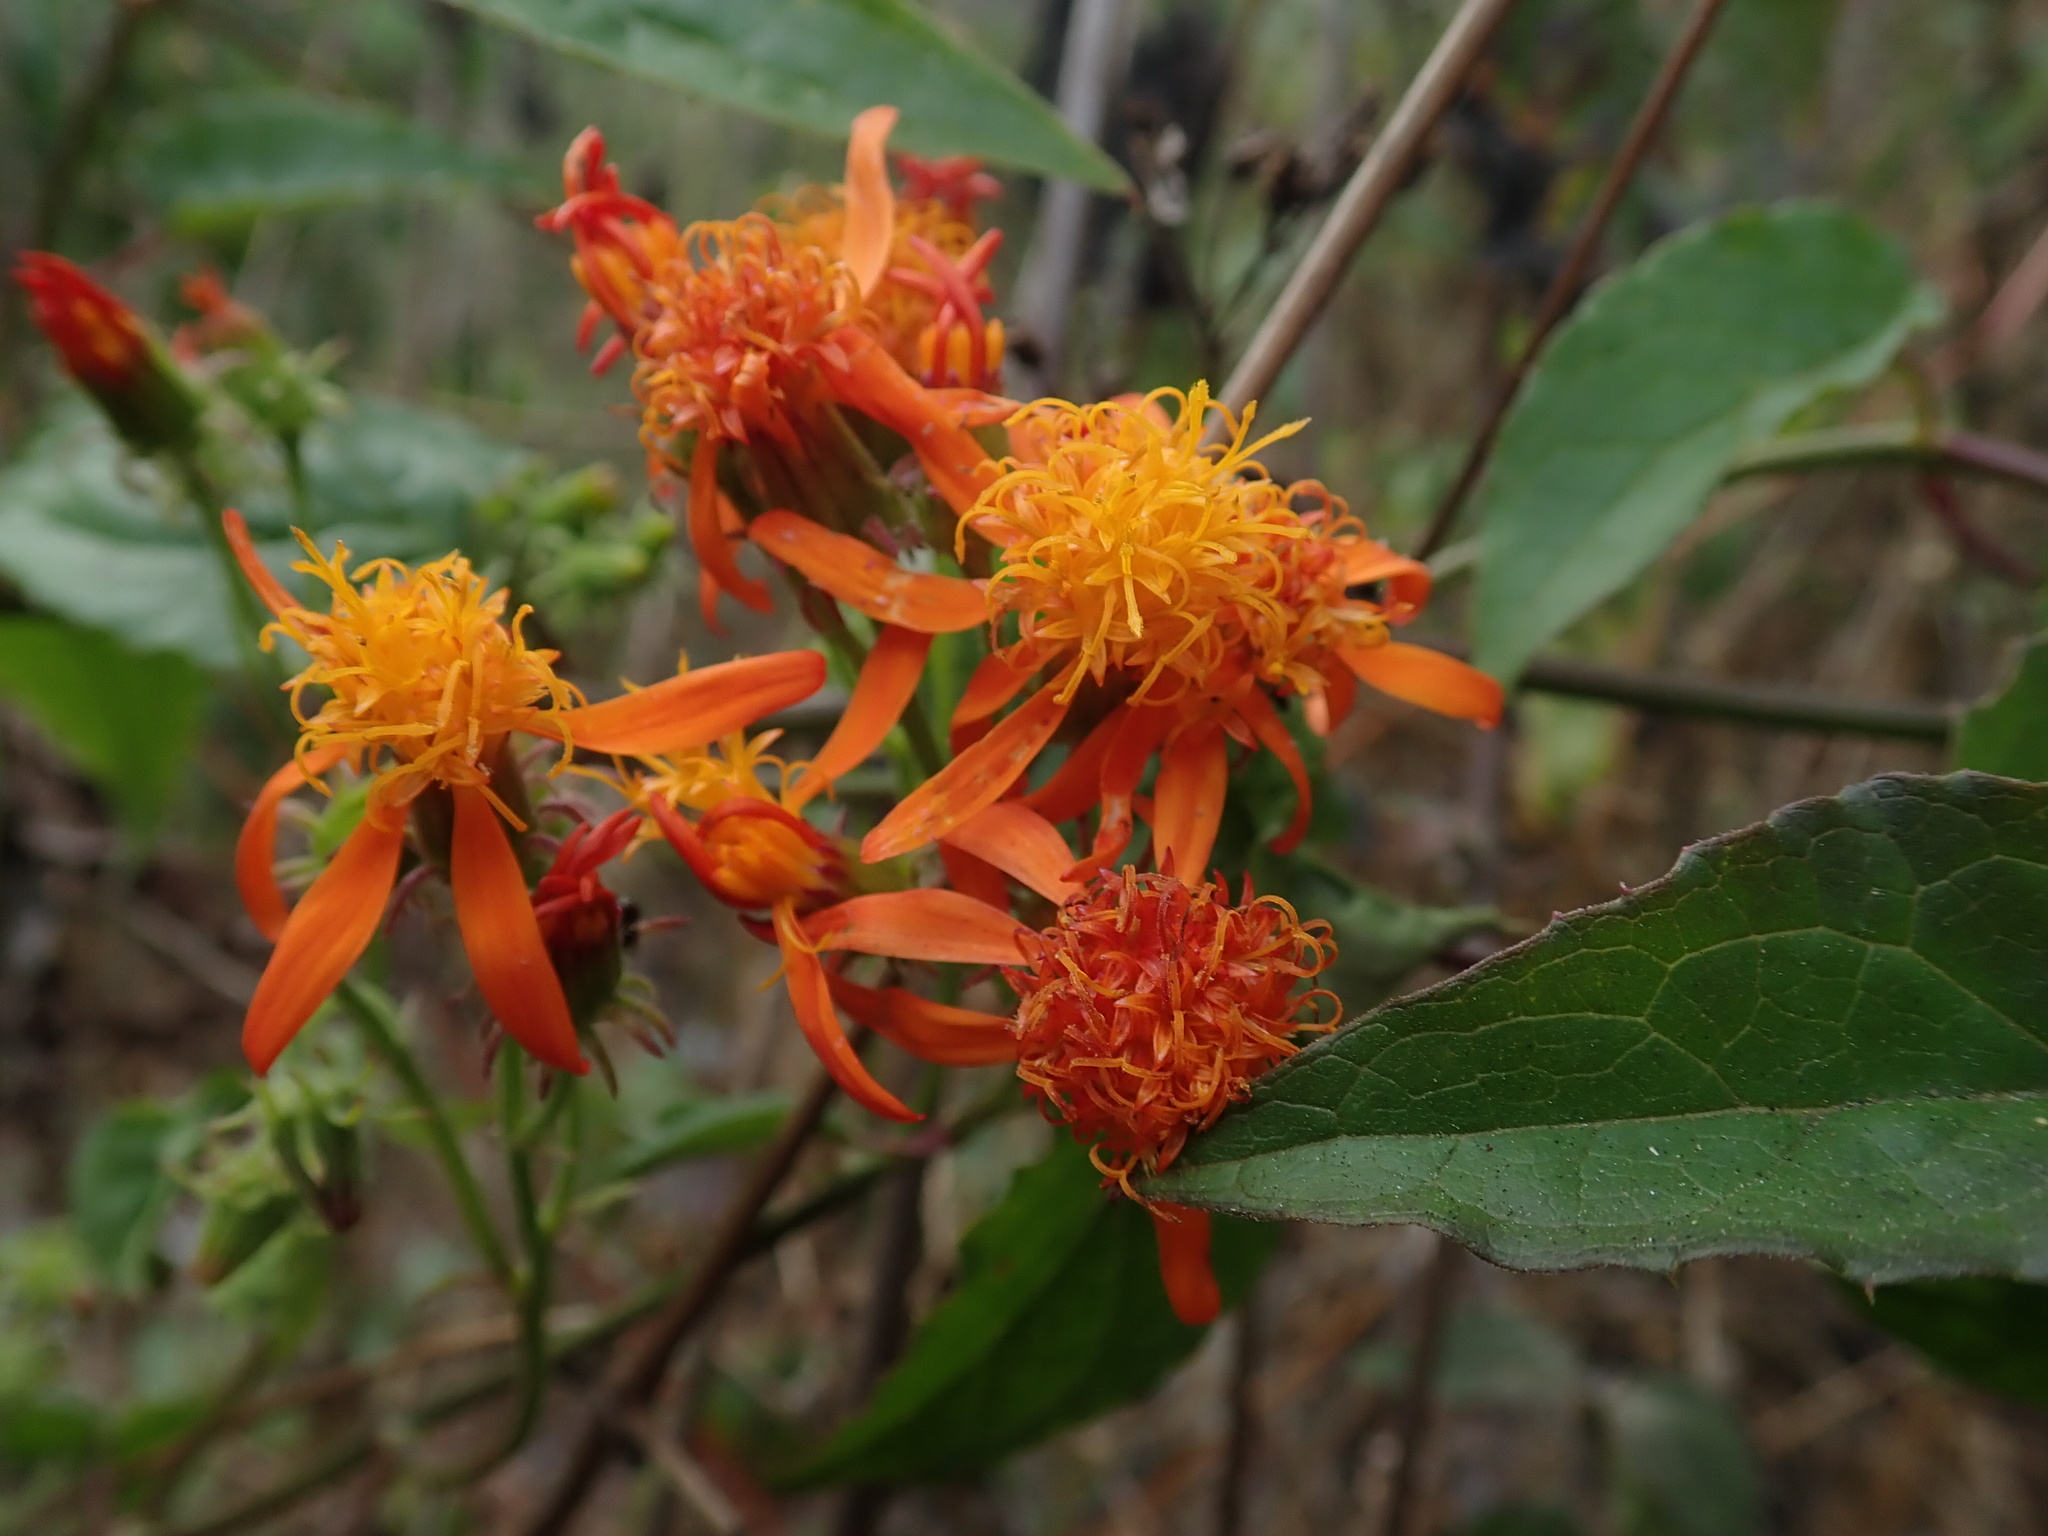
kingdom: Plantae
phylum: Tracheophyta
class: Magnoliopsida
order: Asterales
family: Asteraceae
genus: Pseudogynoxys
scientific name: Pseudogynoxys haenkei
